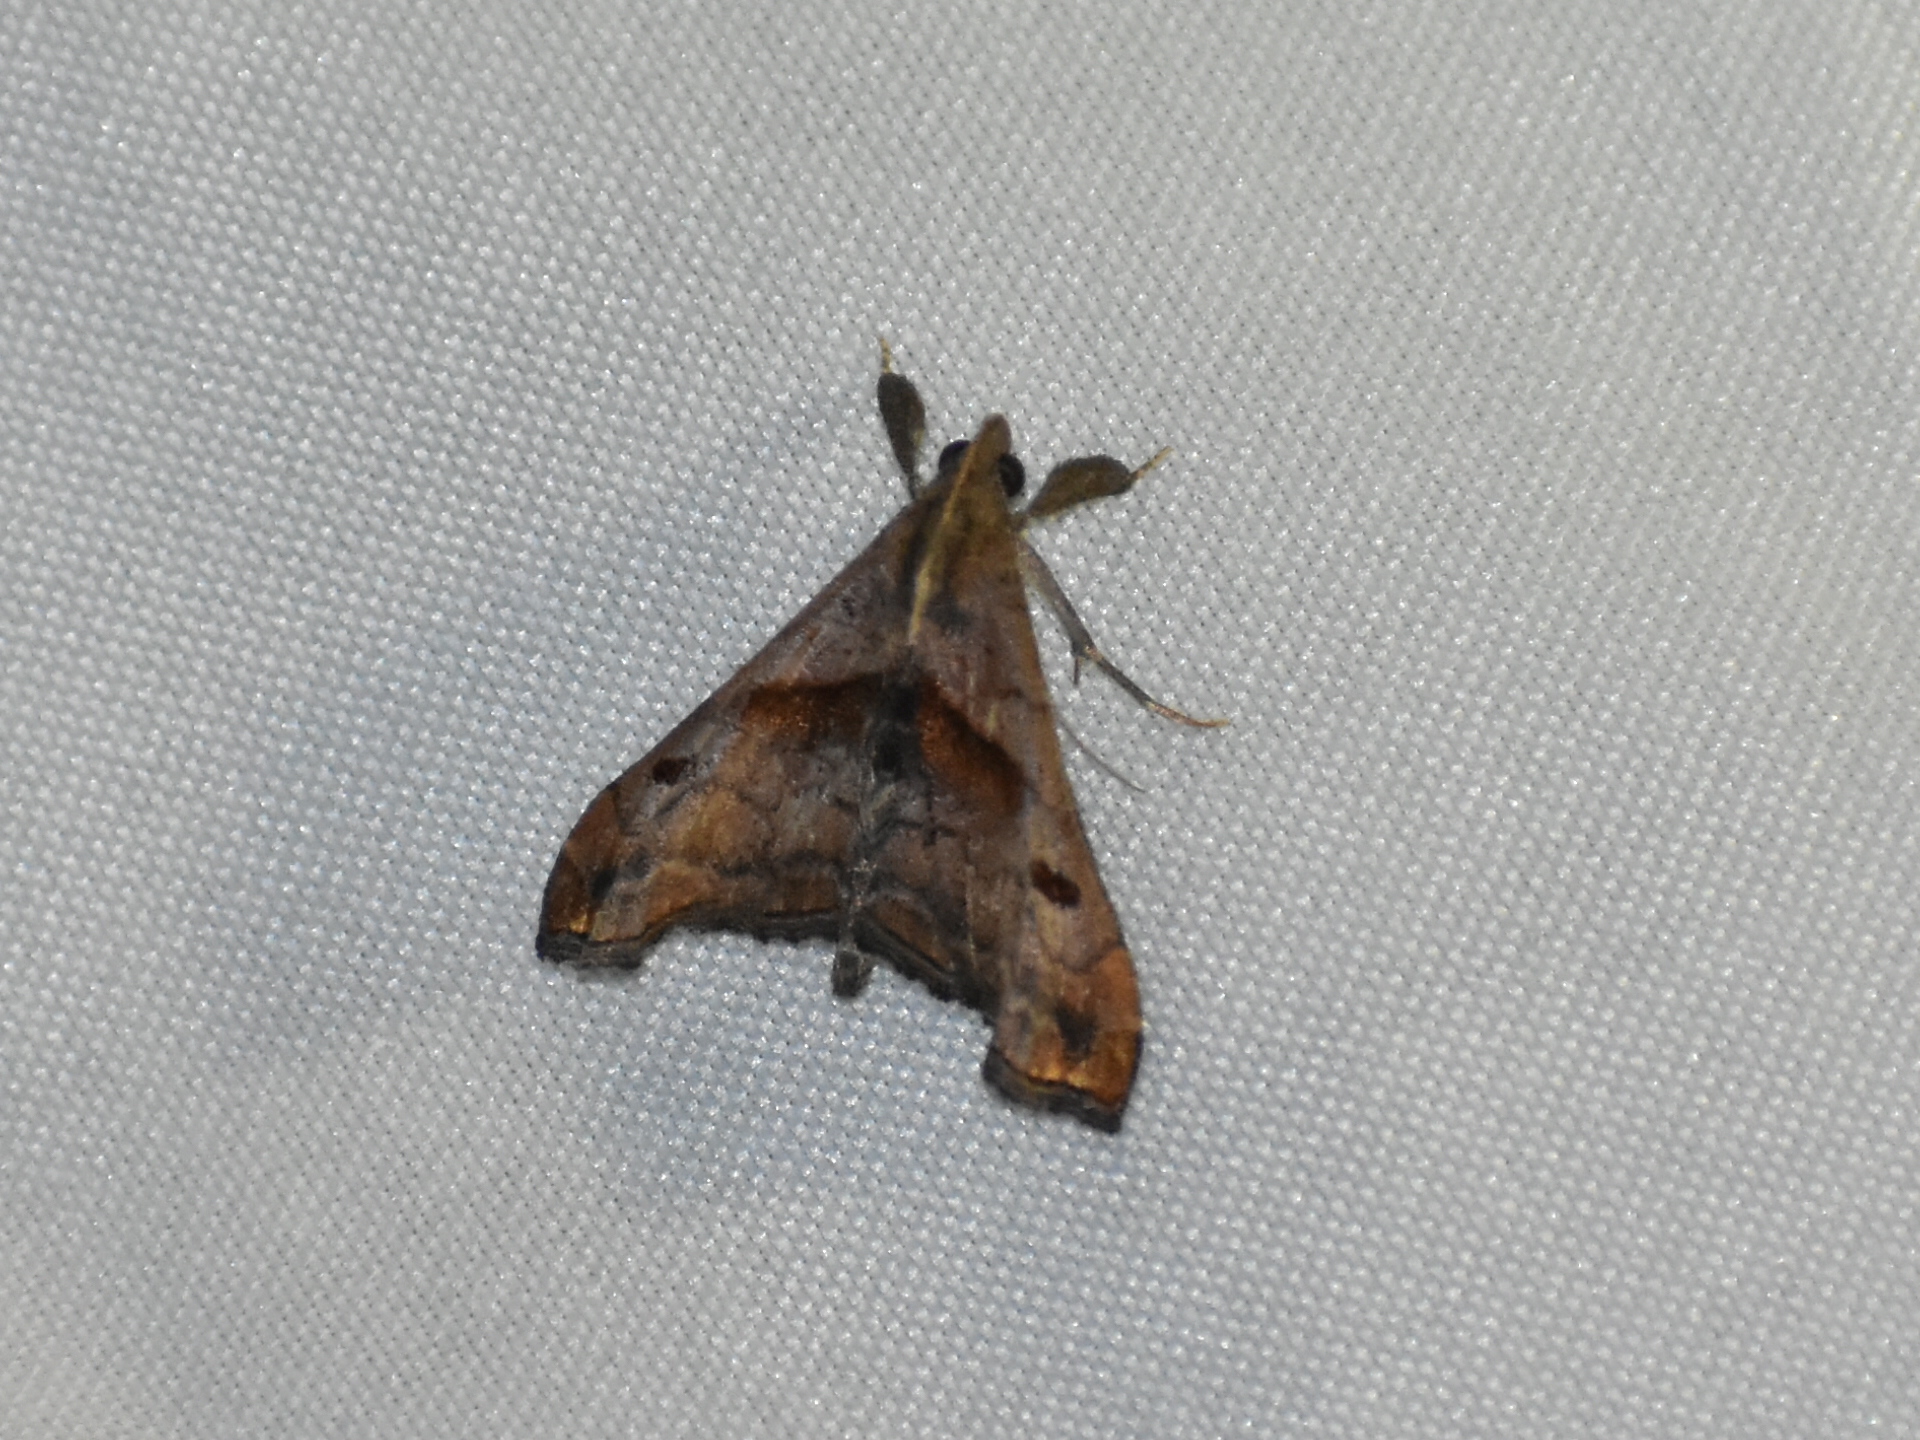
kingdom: Animalia
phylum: Arthropoda
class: Insecta
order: Lepidoptera
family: Erebidae
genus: Palthis
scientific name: Palthis angulalis
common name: Dark-spotted palthis moth
